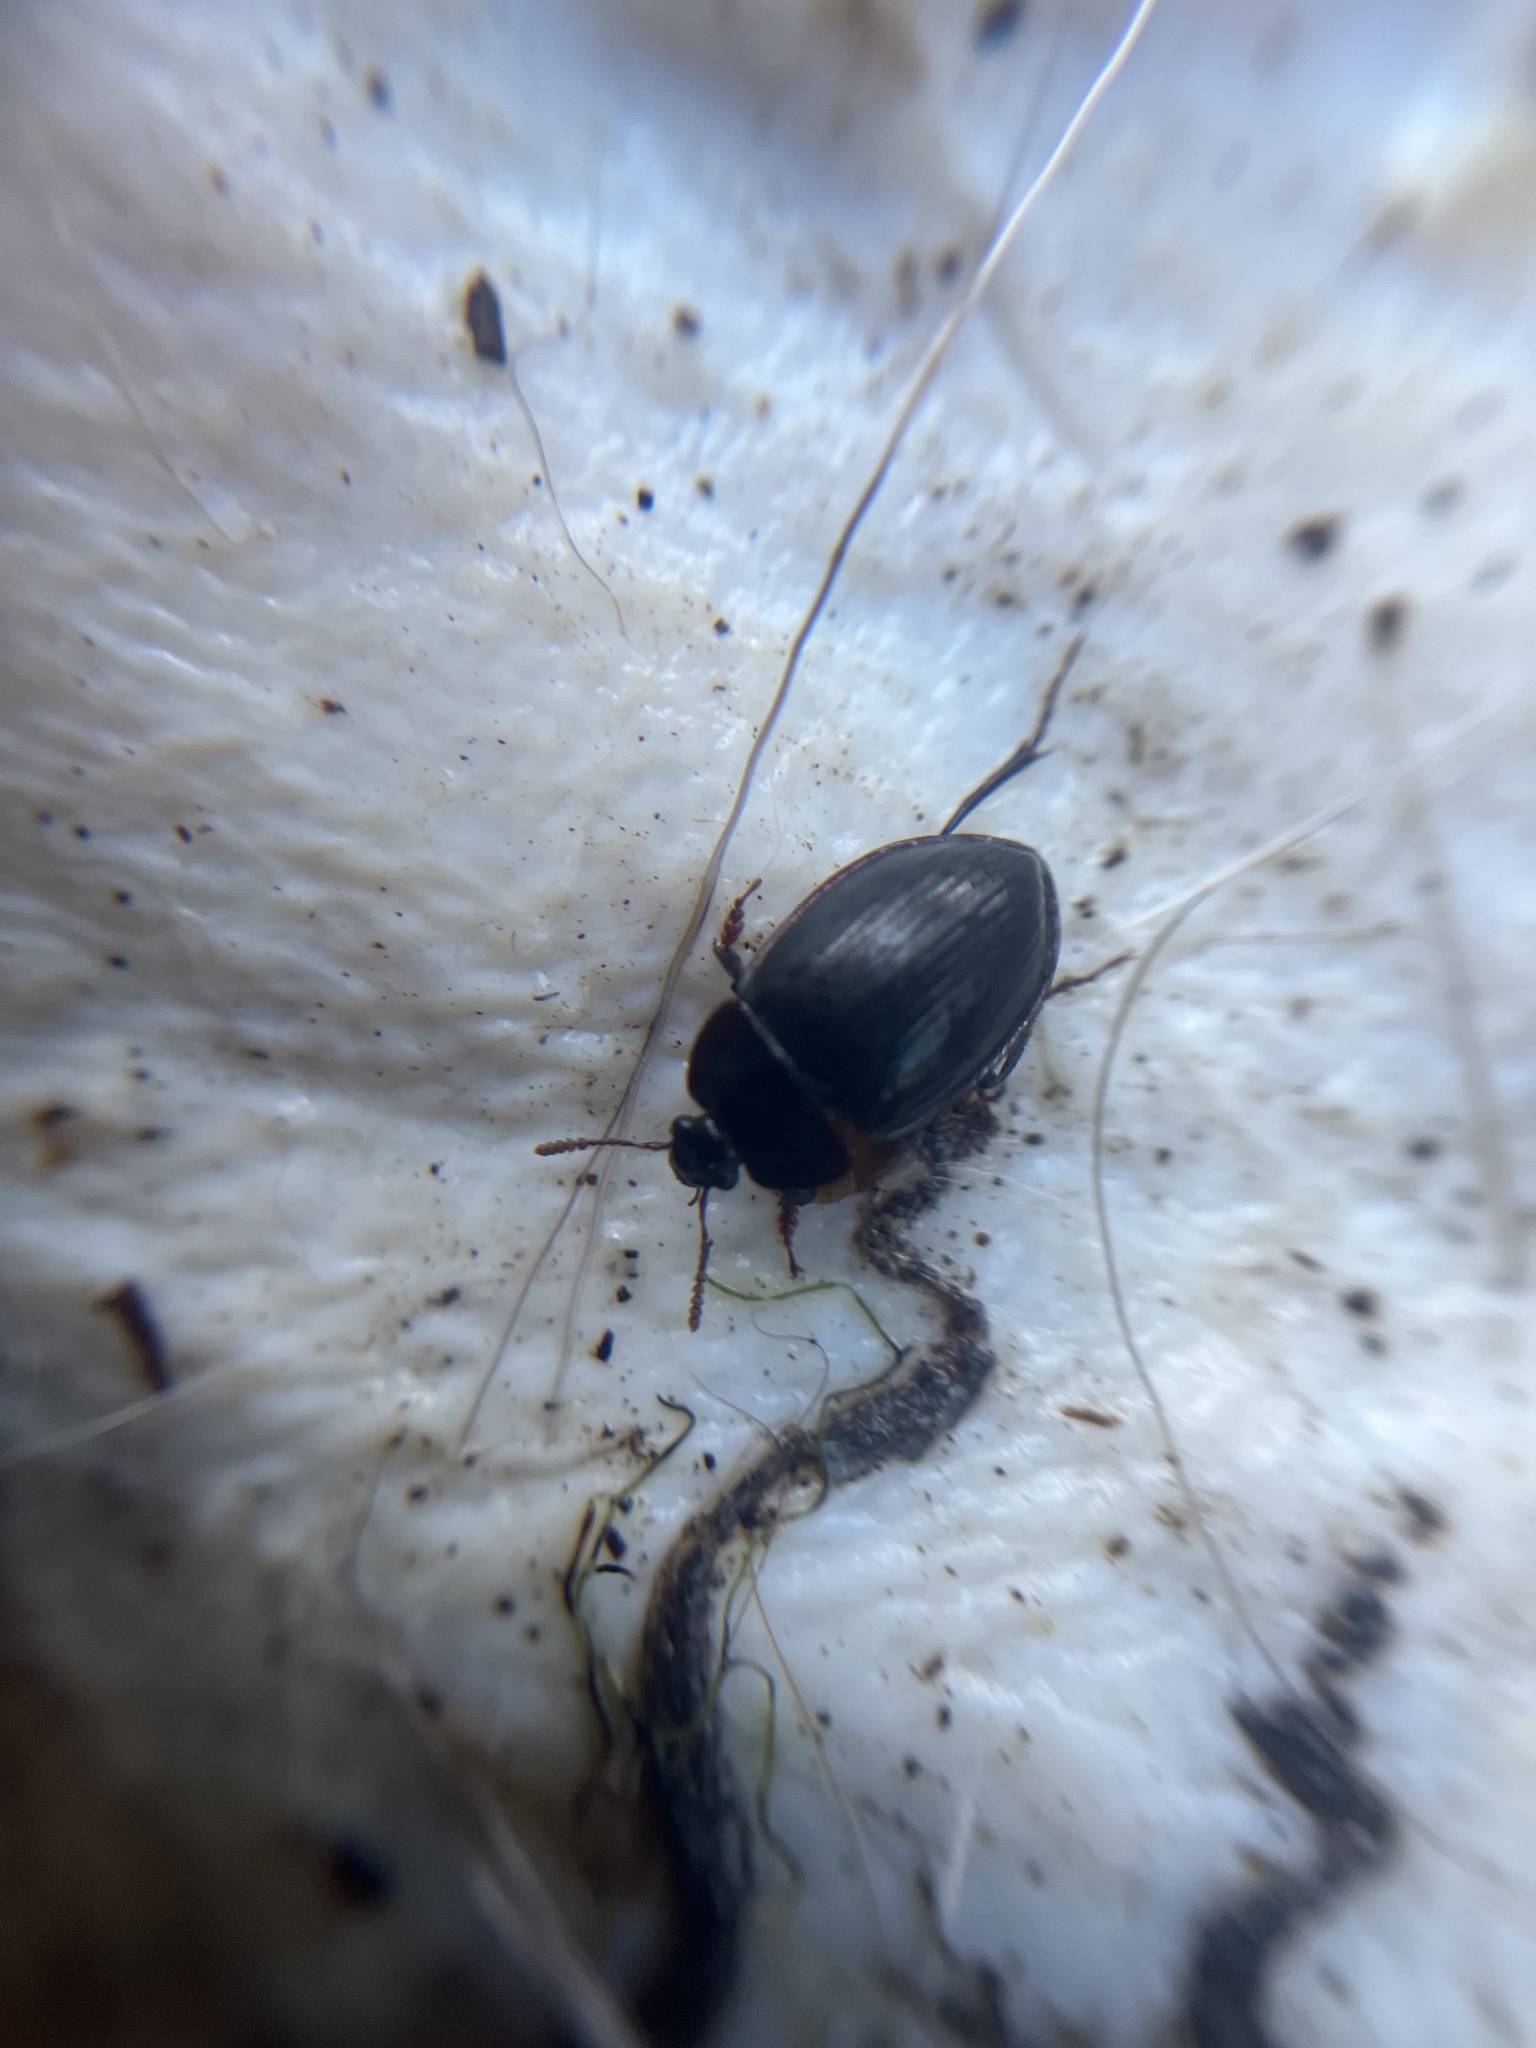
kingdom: Animalia
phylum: Arthropoda
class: Insecta
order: Coleoptera
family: Agyrtidae
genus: Necrophilus
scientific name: Necrophilus hydrophiloides
